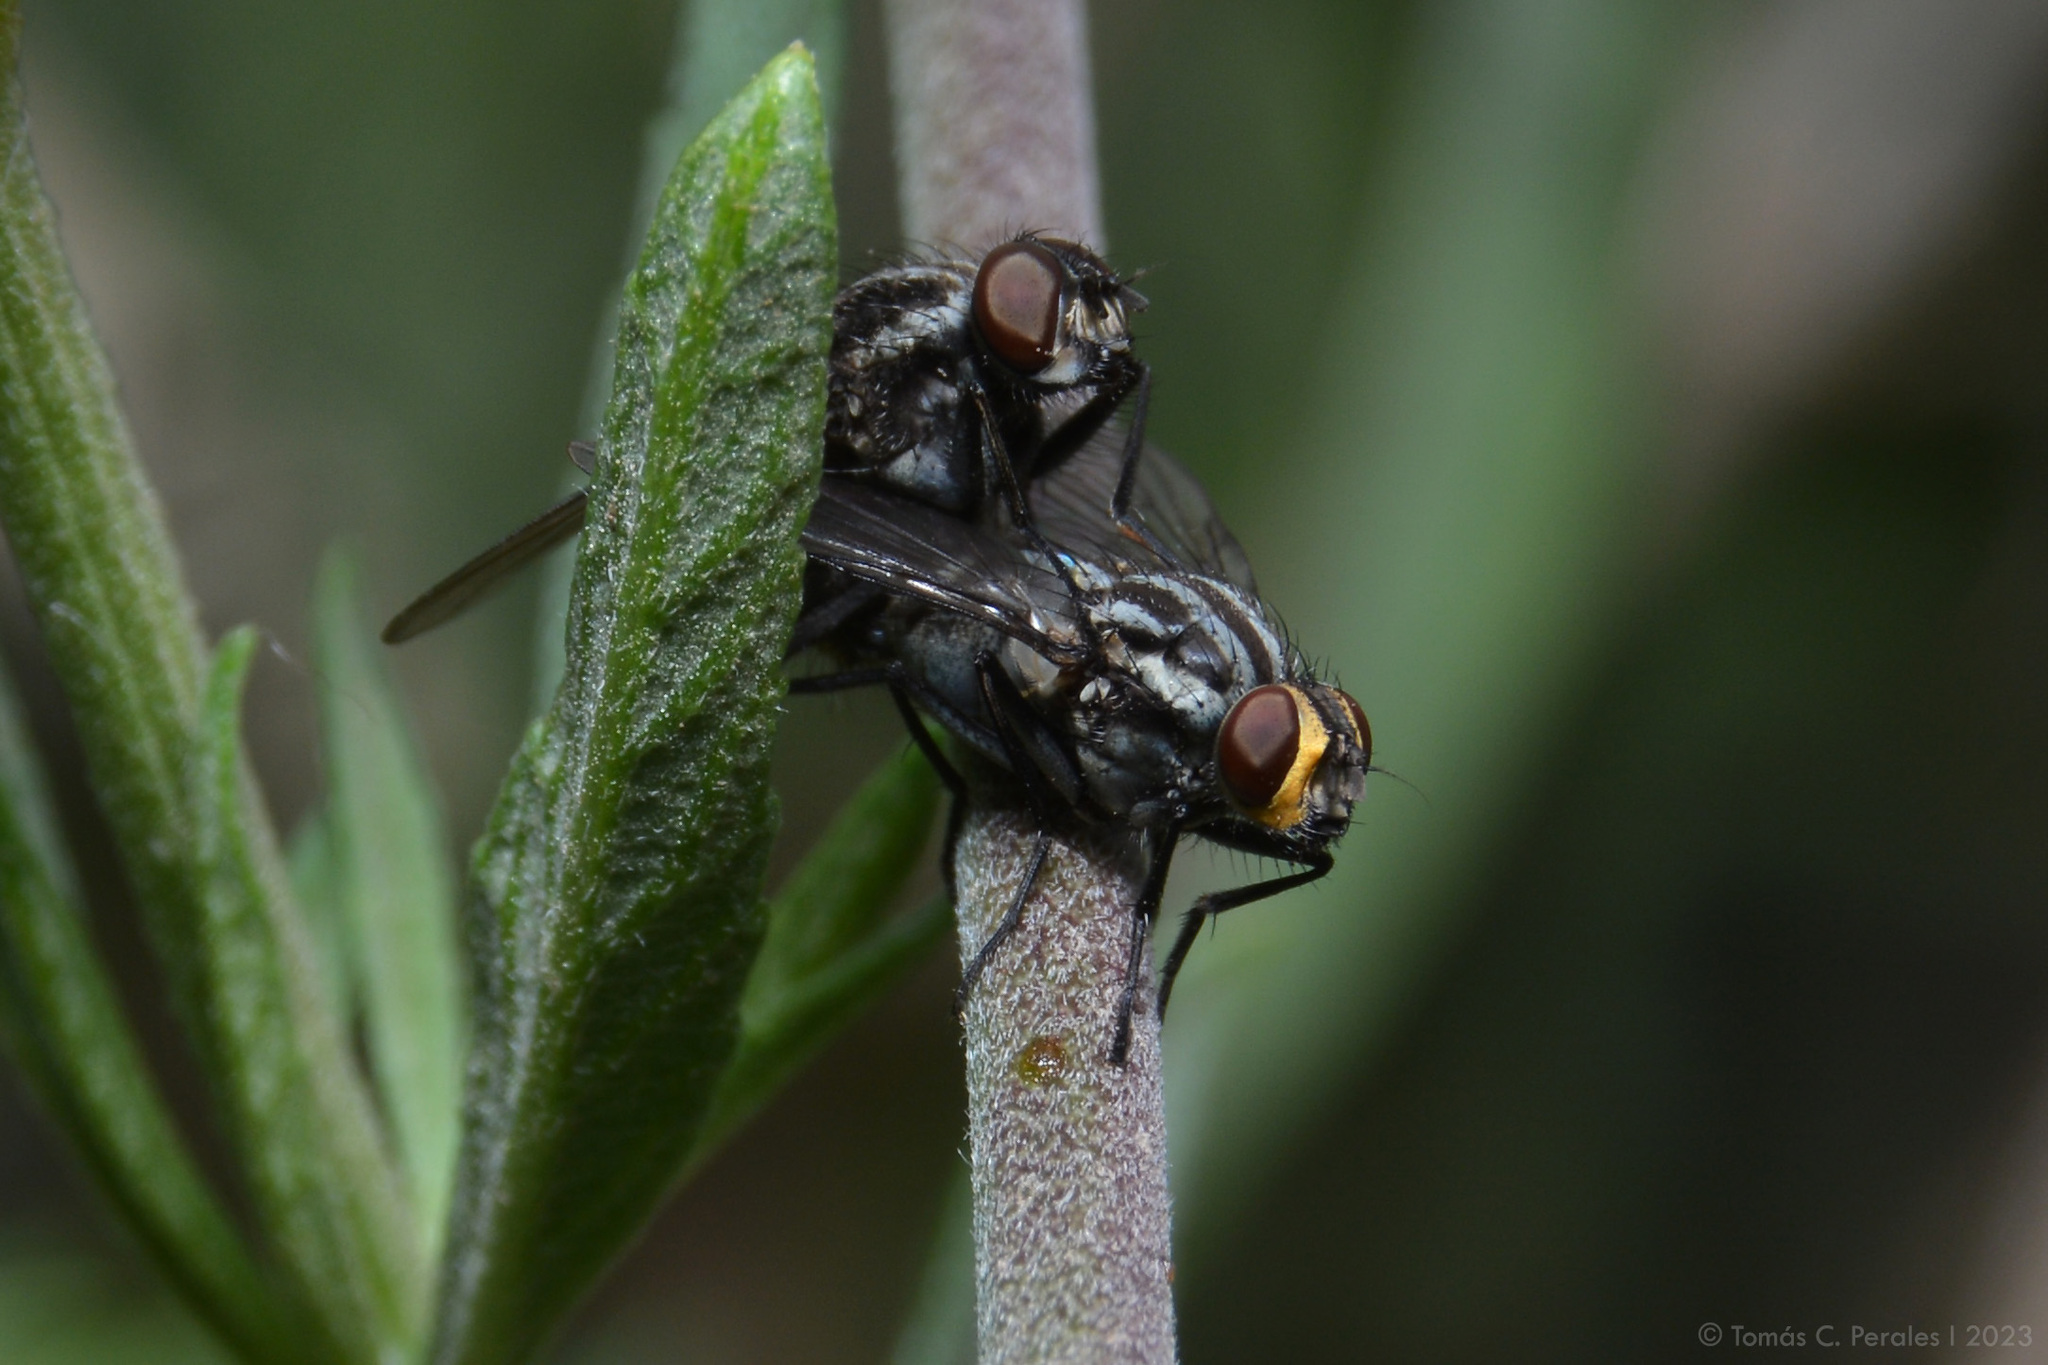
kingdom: Animalia
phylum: Arthropoda
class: Insecta
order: Diptera
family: Muscidae
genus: Neodexiopsis
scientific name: Neodexiopsis paulistensis
